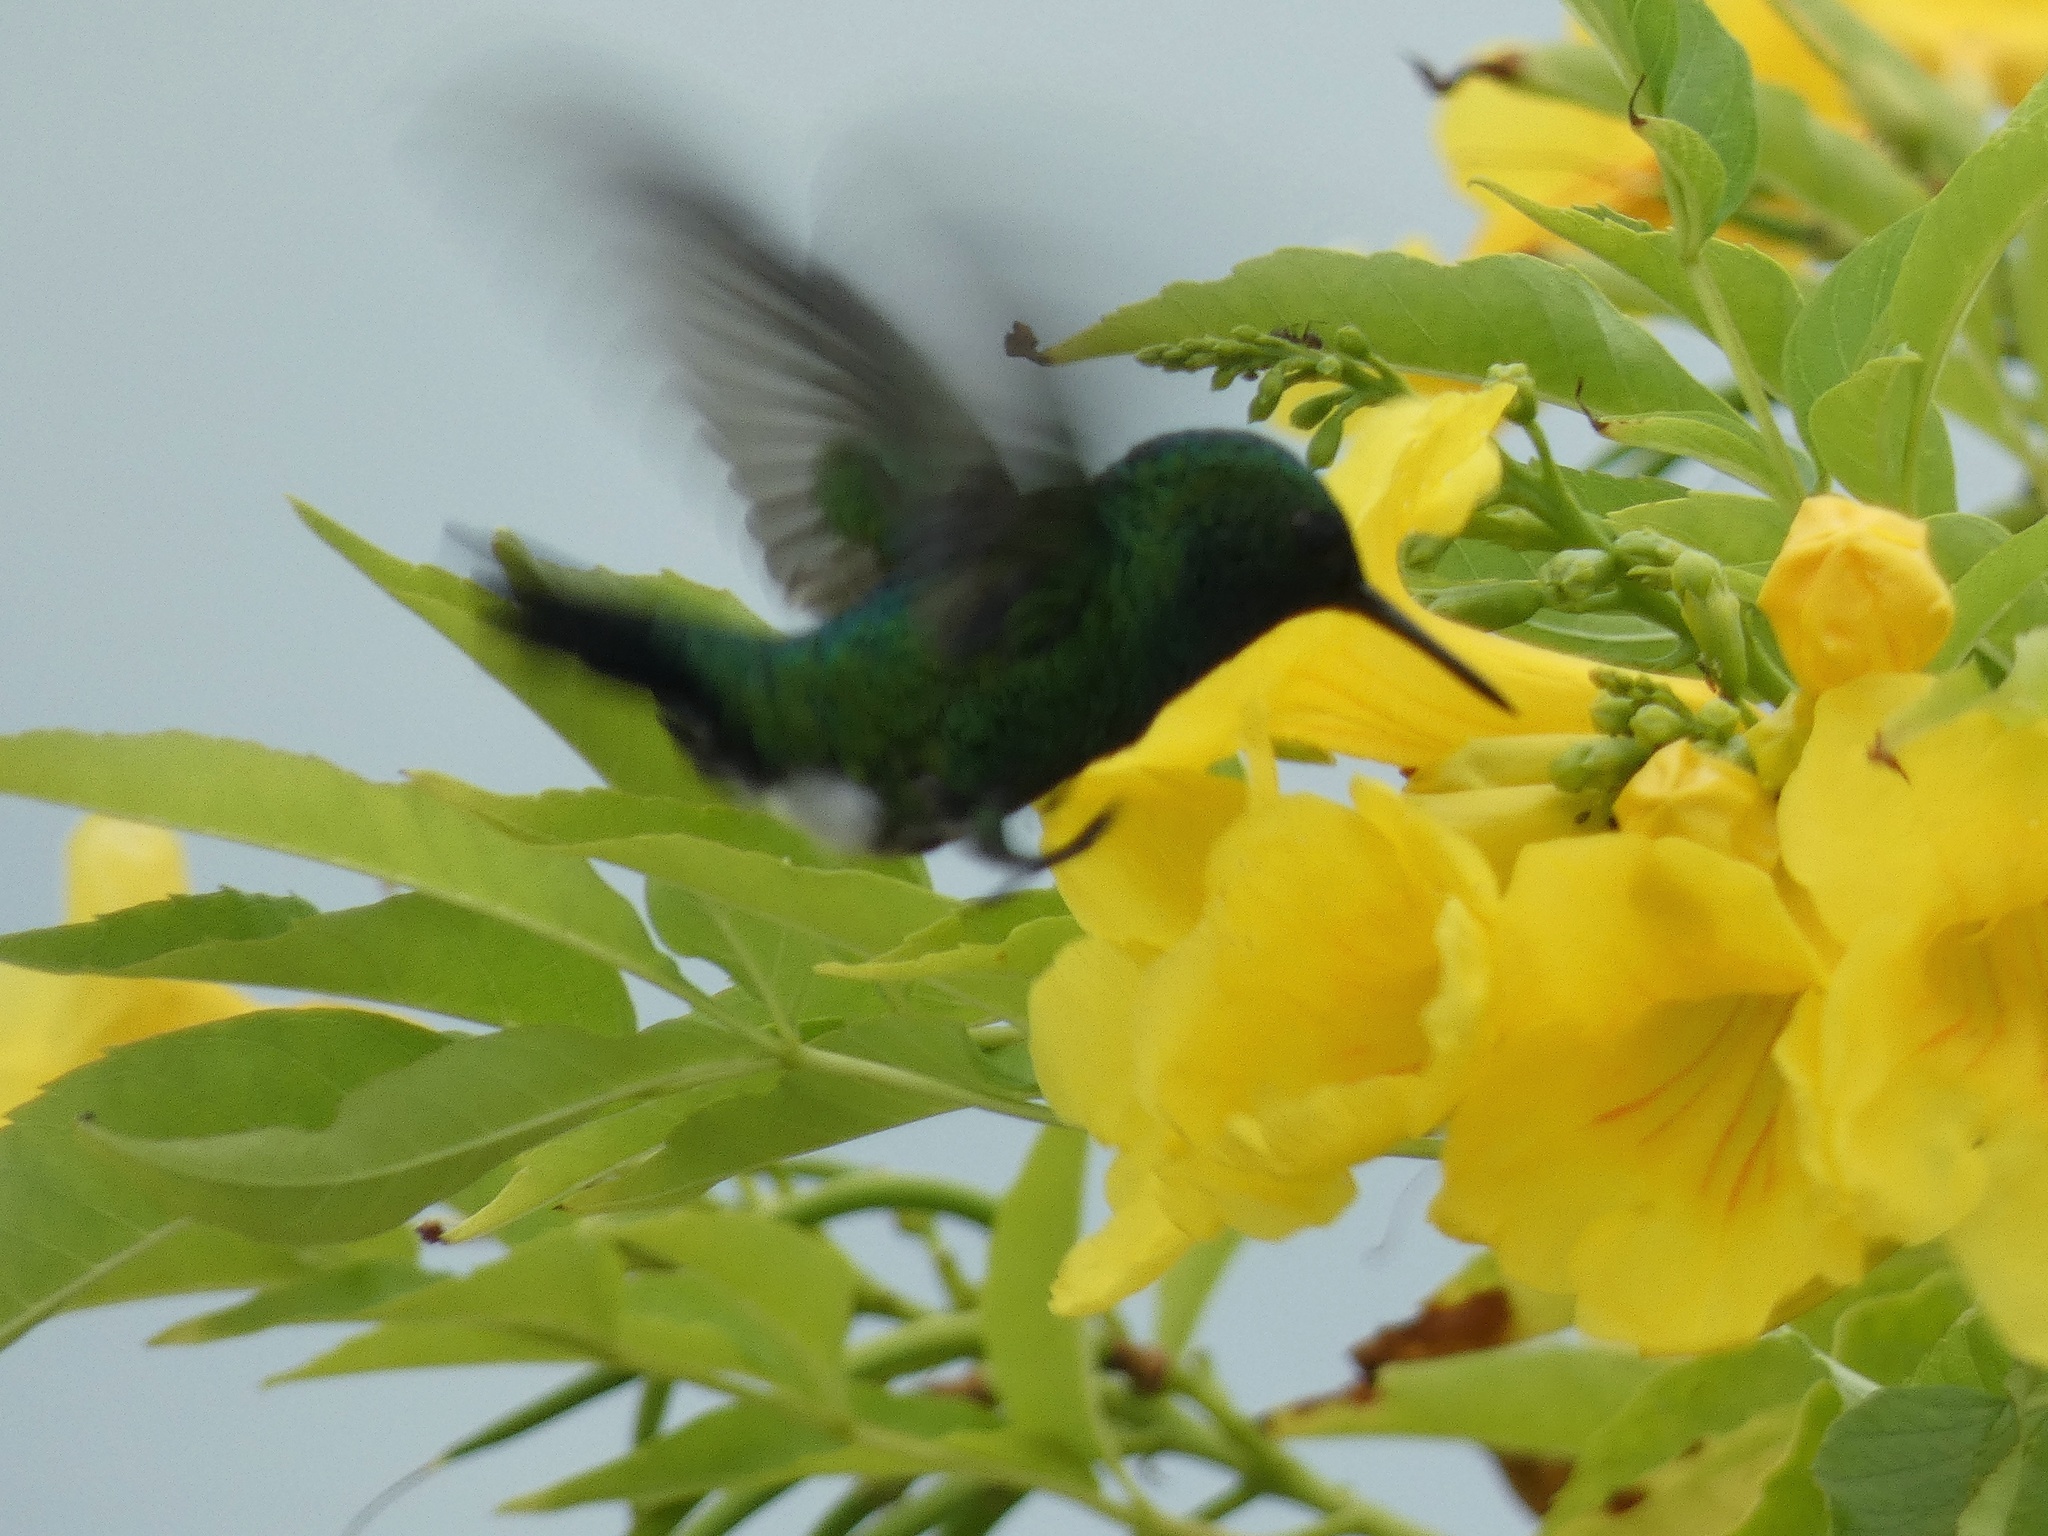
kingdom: Animalia
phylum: Chordata
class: Aves
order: Apodiformes
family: Trochilidae
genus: Chlorostilbon
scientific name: Chlorostilbon assimilis
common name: Garden emerald
